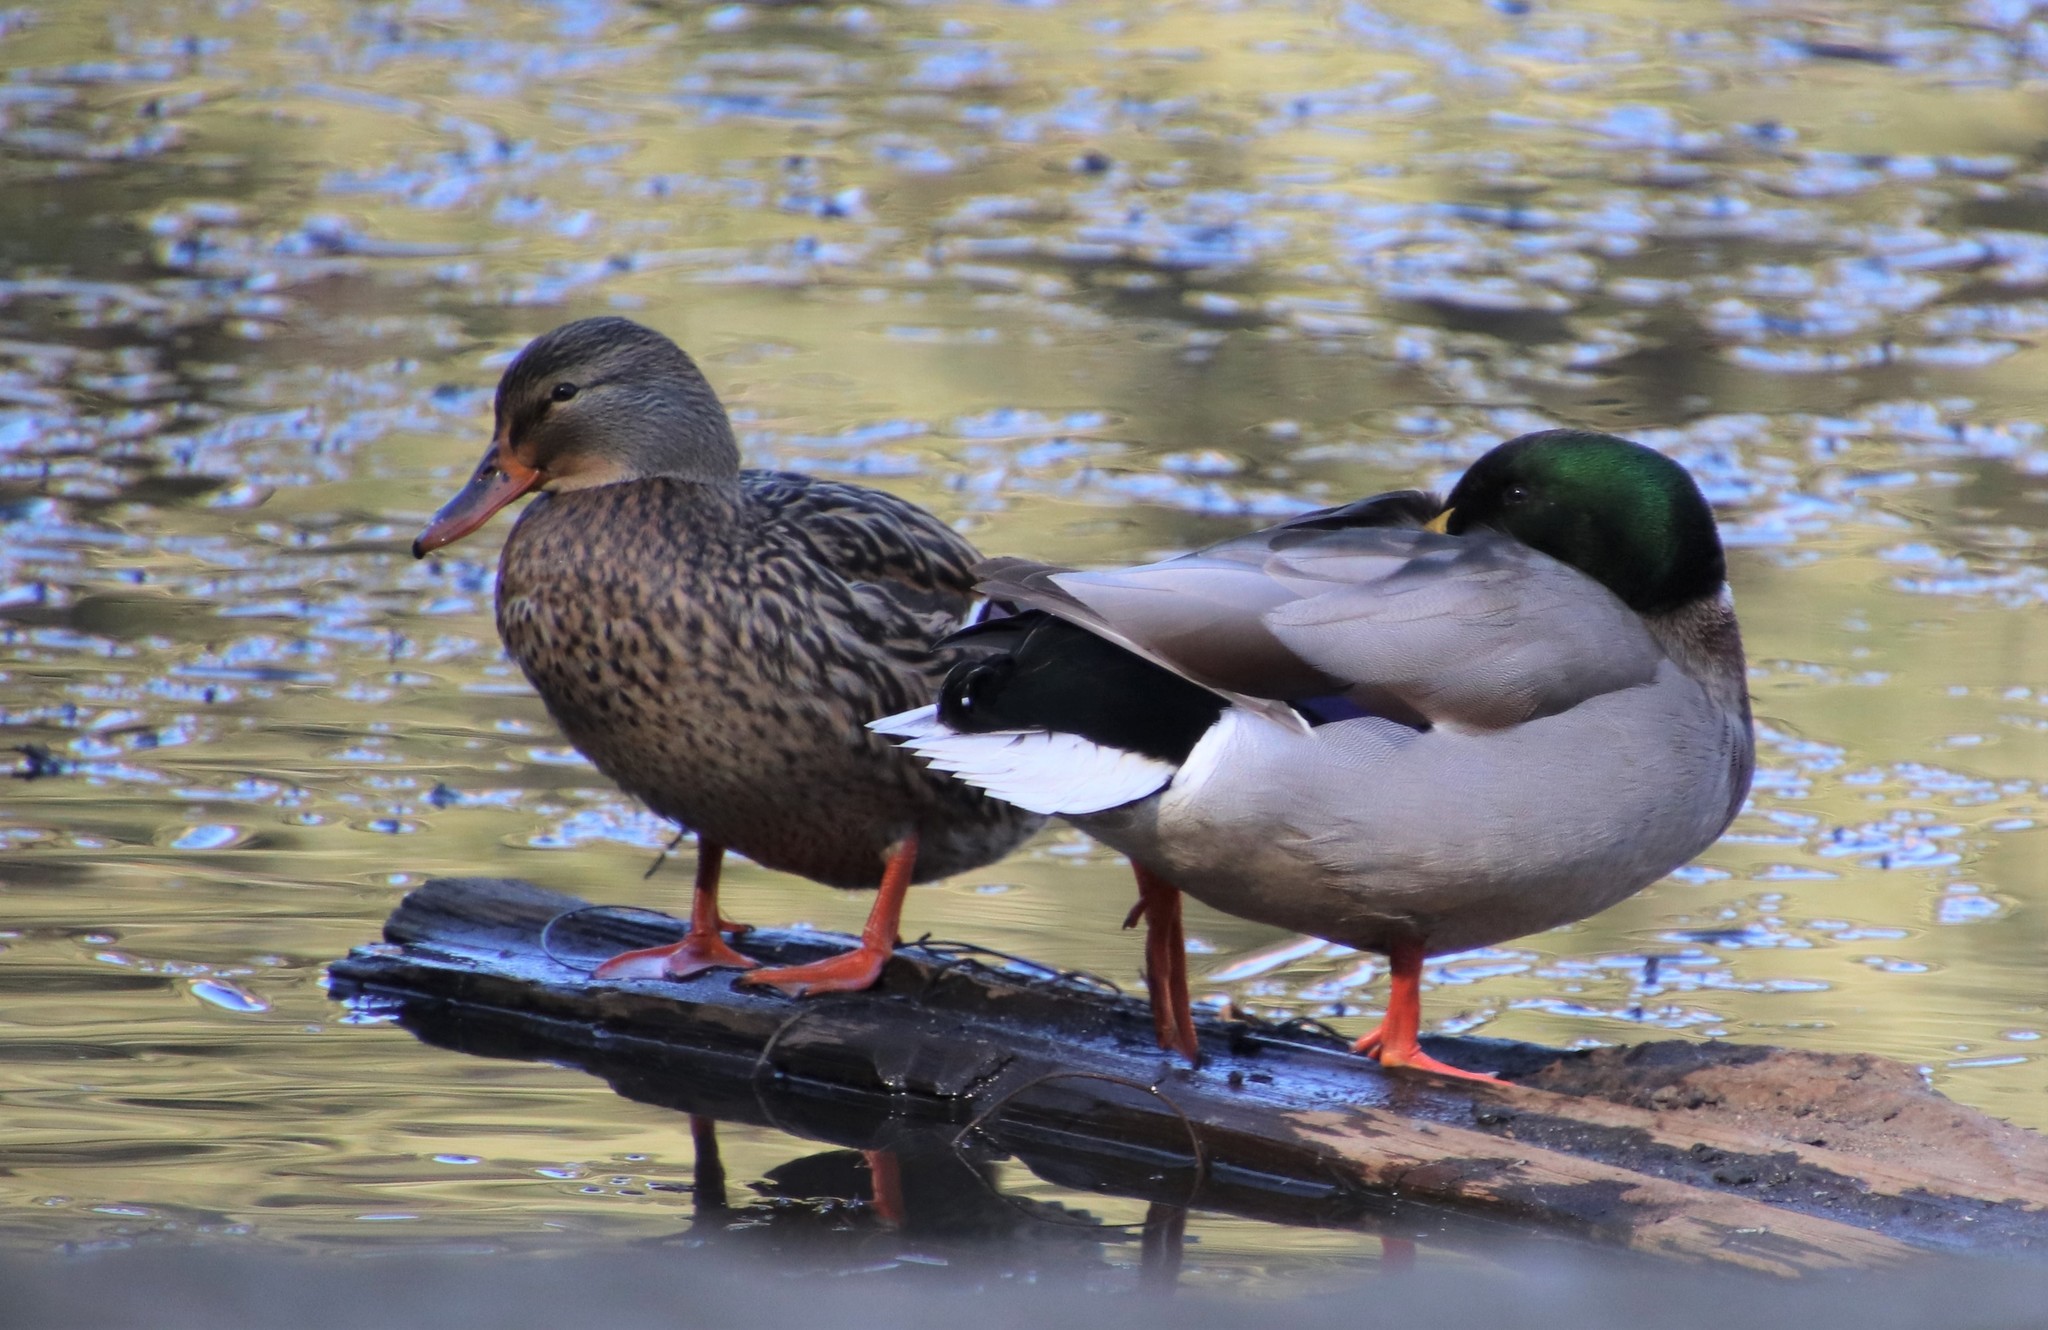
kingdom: Animalia
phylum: Chordata
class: Aves
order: Anseriformes
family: Anatidae
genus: Anas
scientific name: Anas platyrhynchos
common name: Mallard
